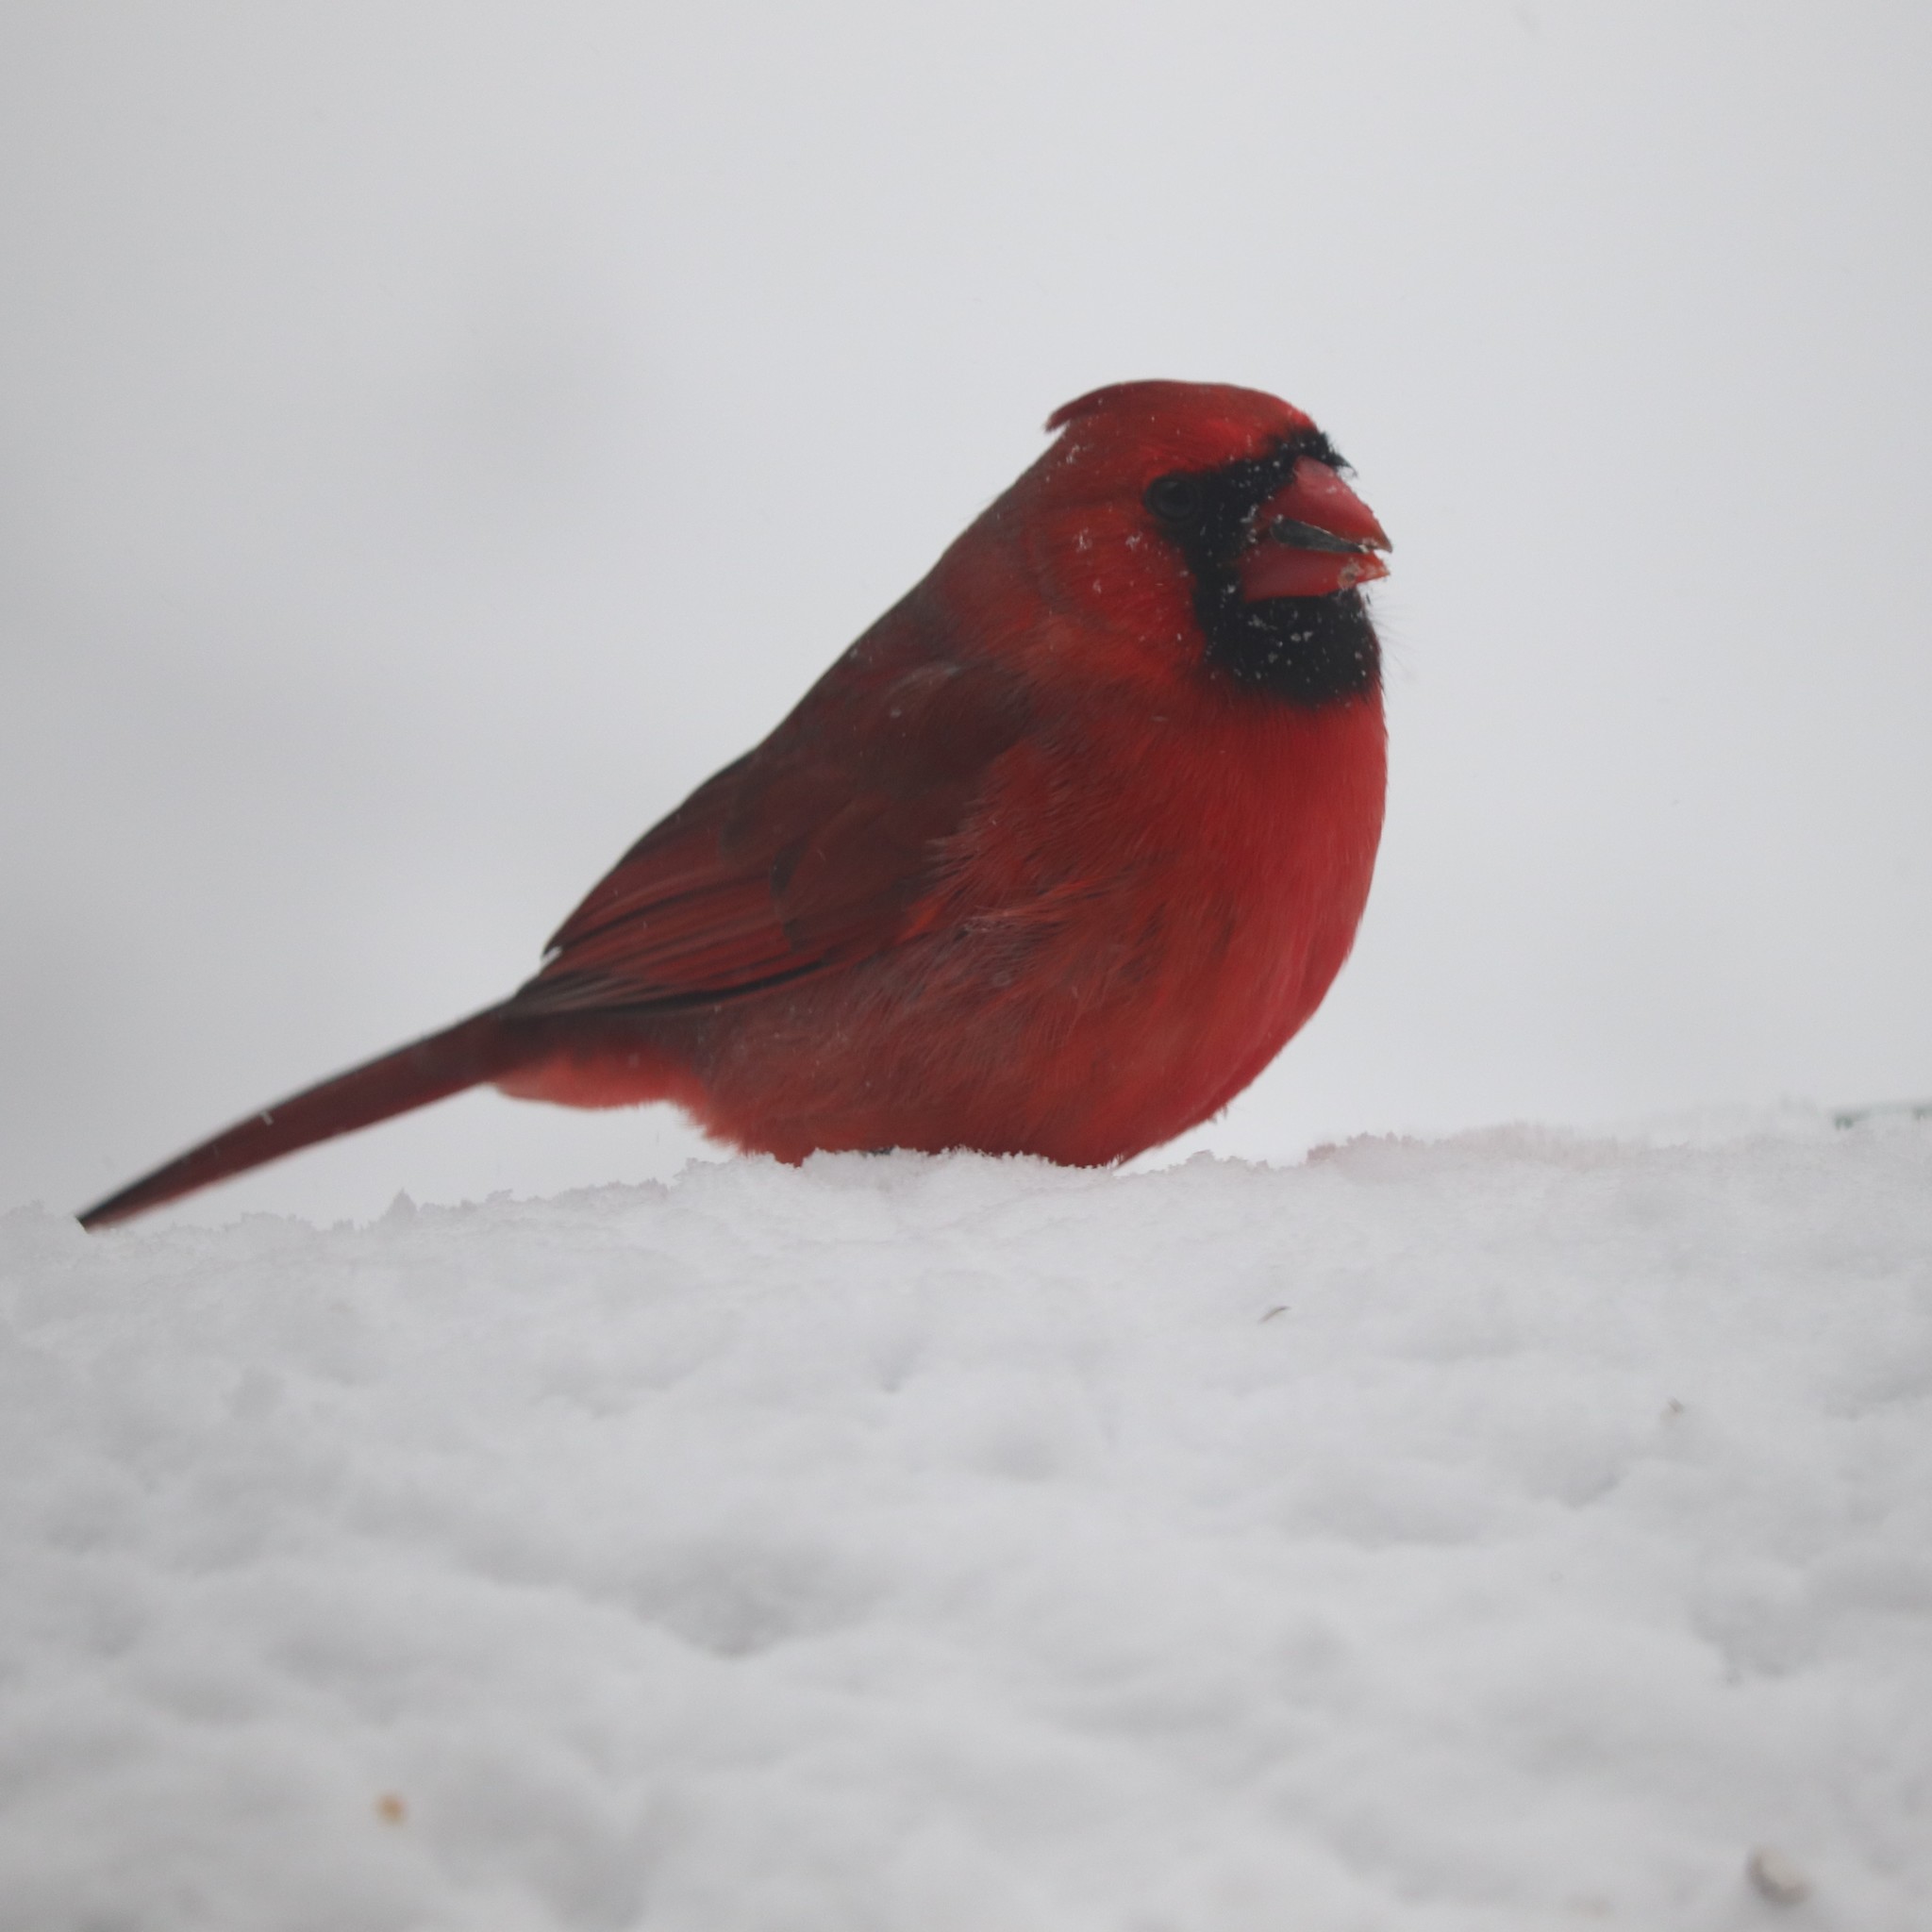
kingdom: Animalia
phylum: Chordata
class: Aves
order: Passeriformes
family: Cardinalidae
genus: Cardinalis
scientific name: Cardinalis cardinalis
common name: Northern cardinal
